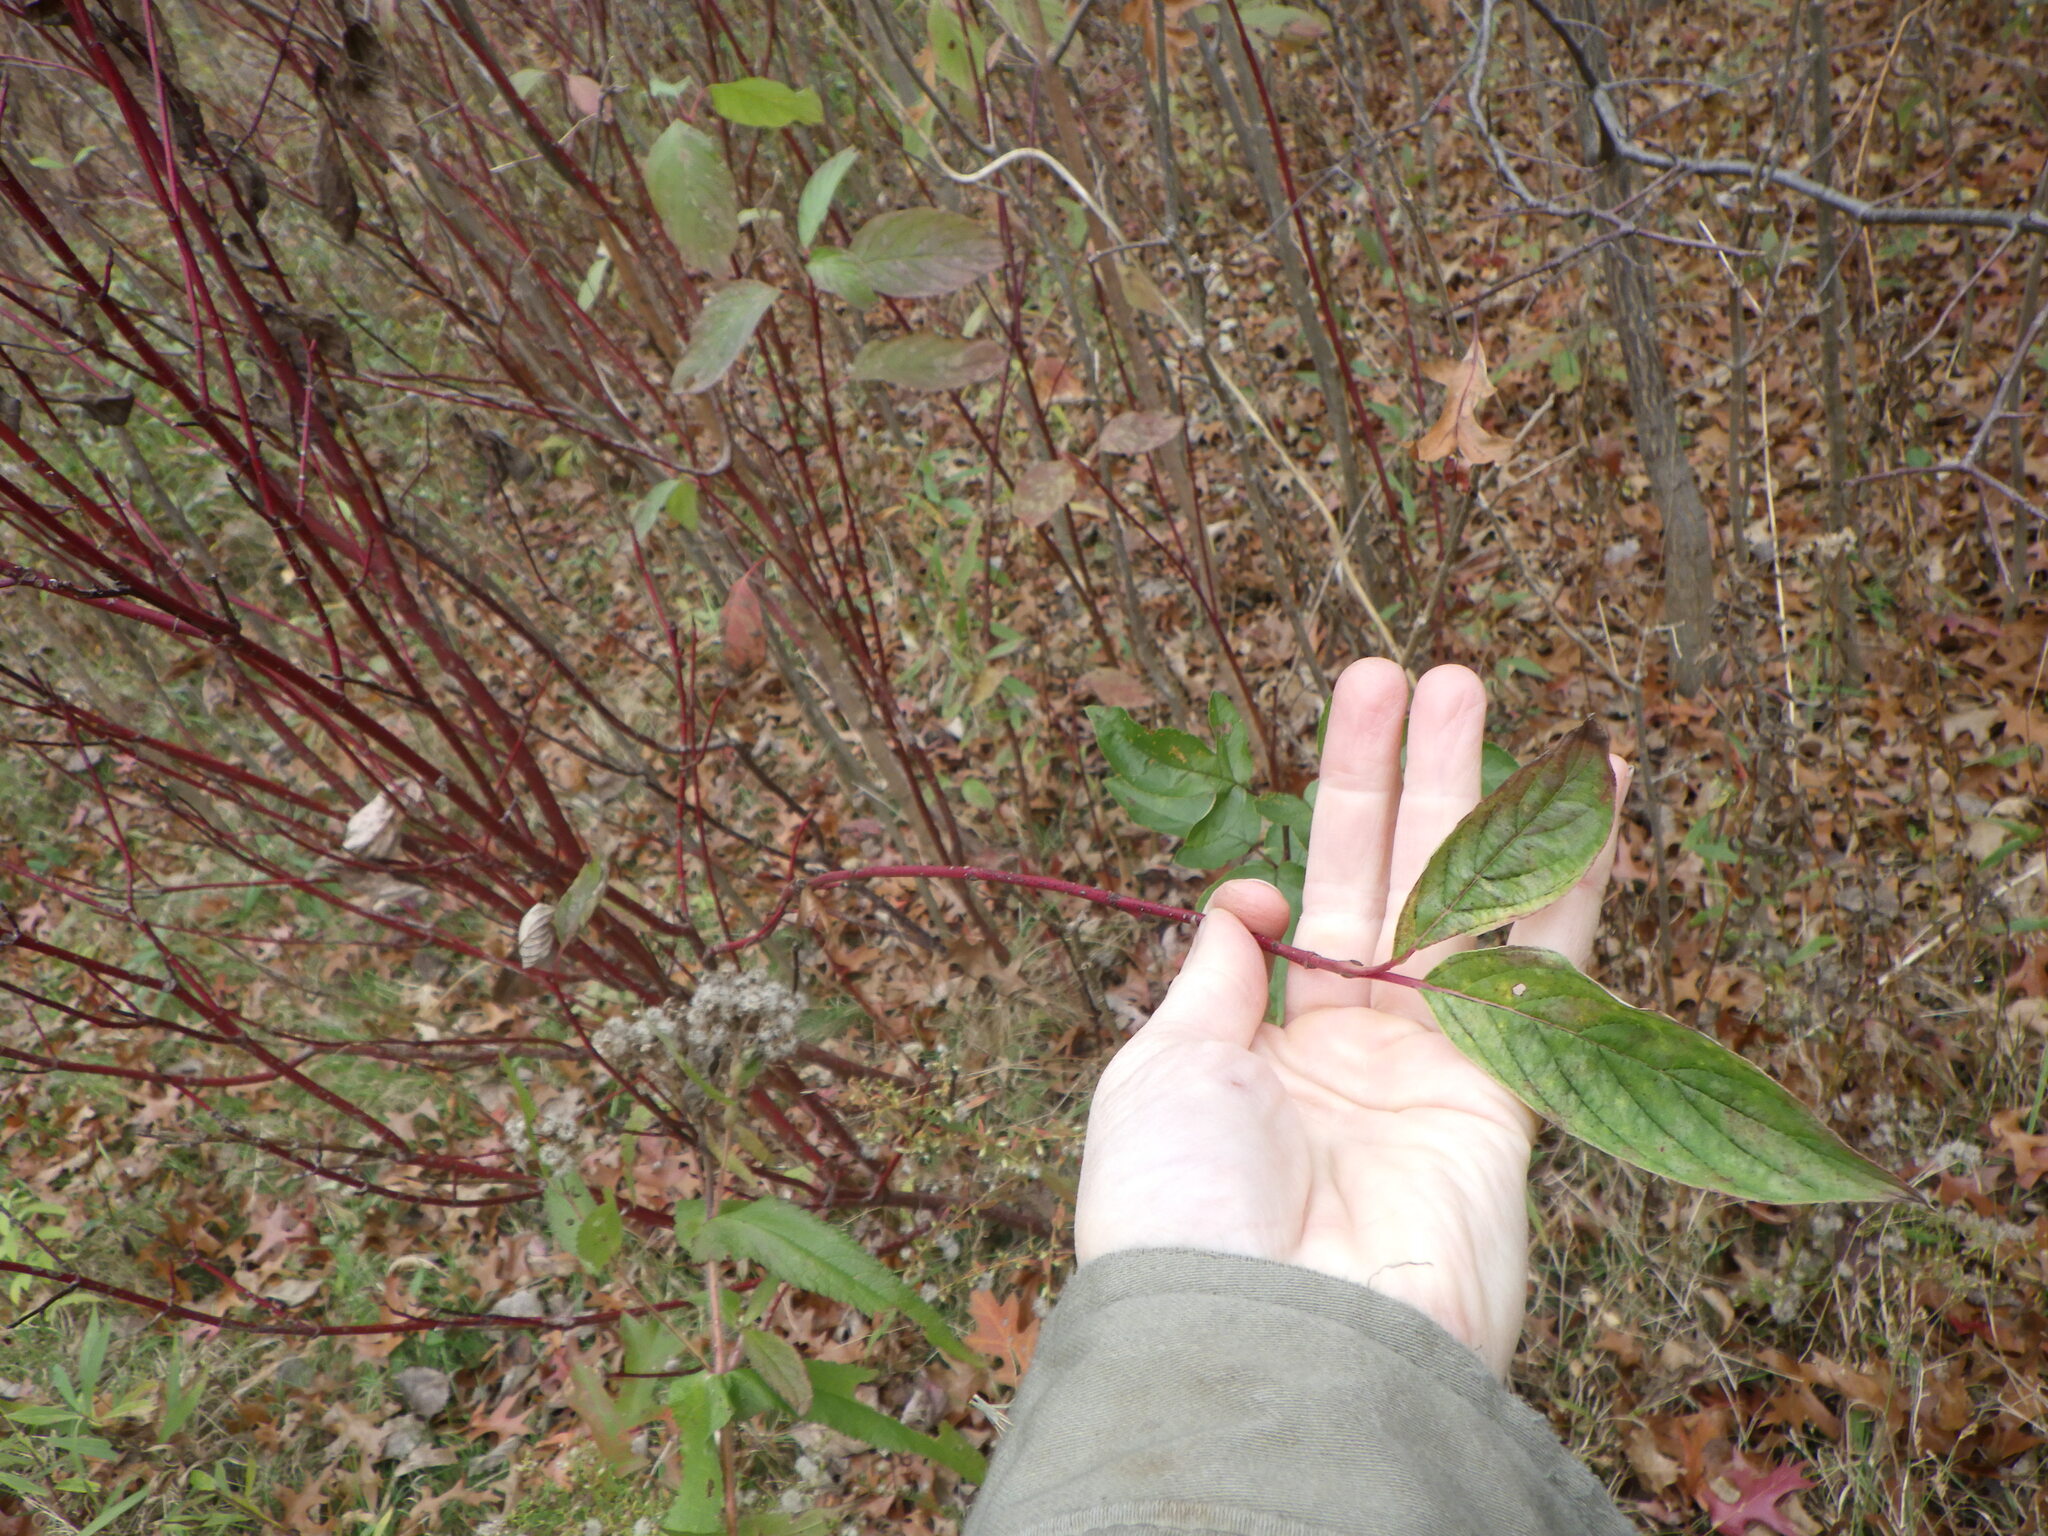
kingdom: Plantae
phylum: Tracheophyta
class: Magnoliopsida
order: Cornales
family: Cornaceae
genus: Cornus
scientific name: Cornus sericea
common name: Red-osier dogwood
